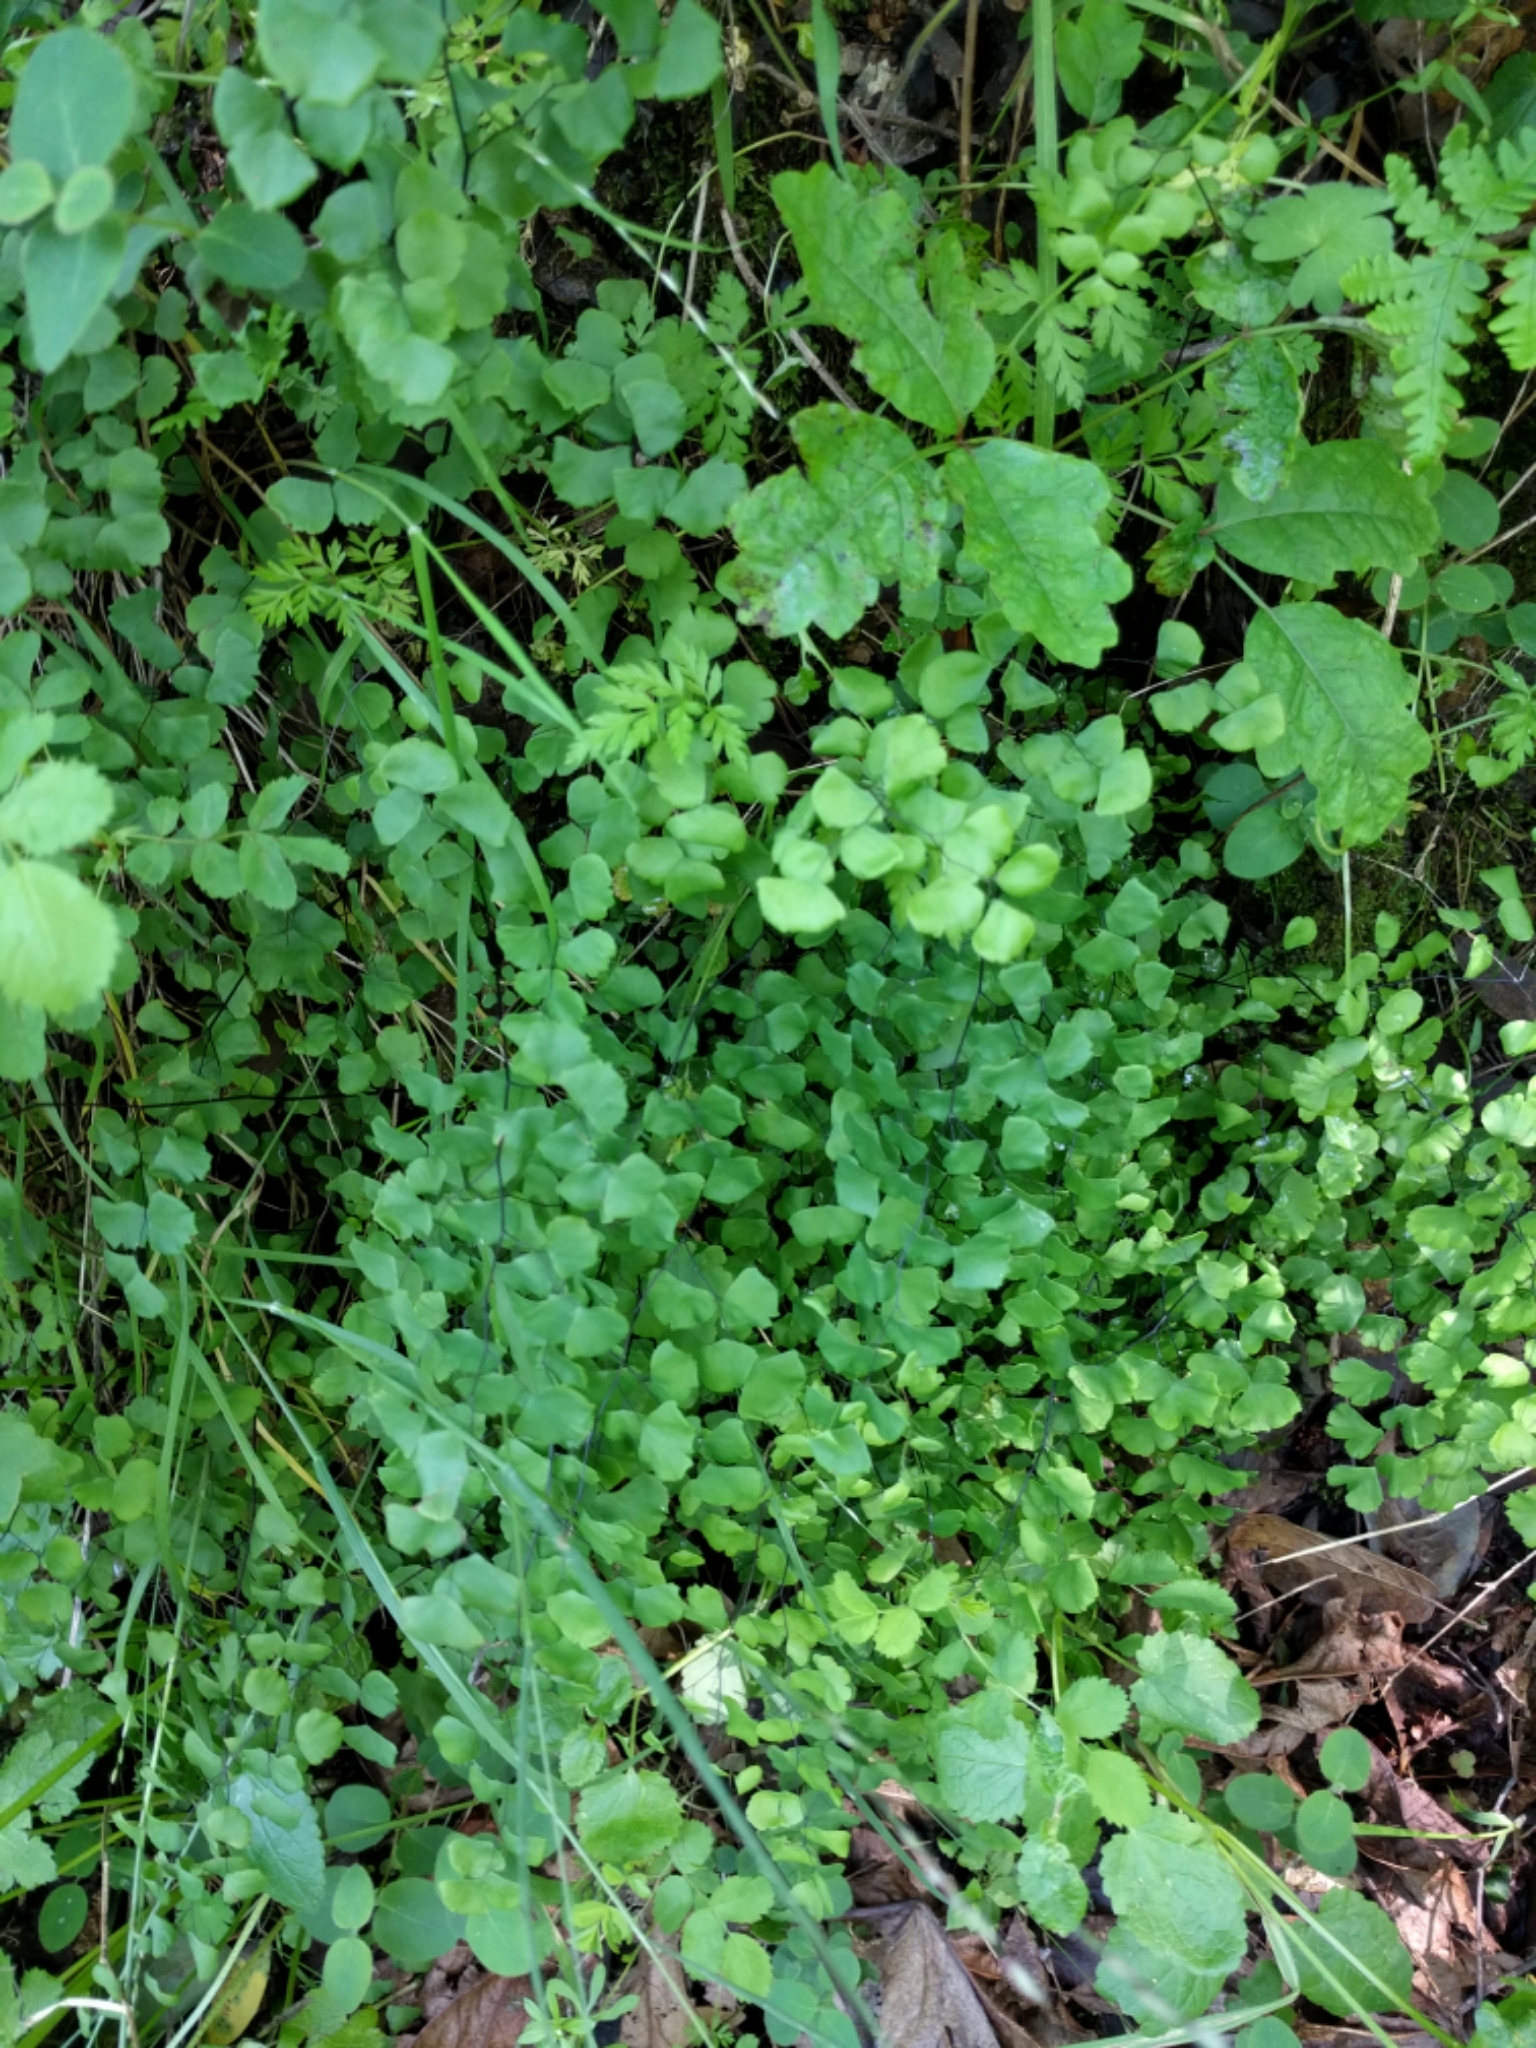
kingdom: Plantae
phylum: Tracheophyta
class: Polypodiopsida
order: Polypodiales
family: Pteridaceae
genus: Adiantum
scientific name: Adiantum jordanii
